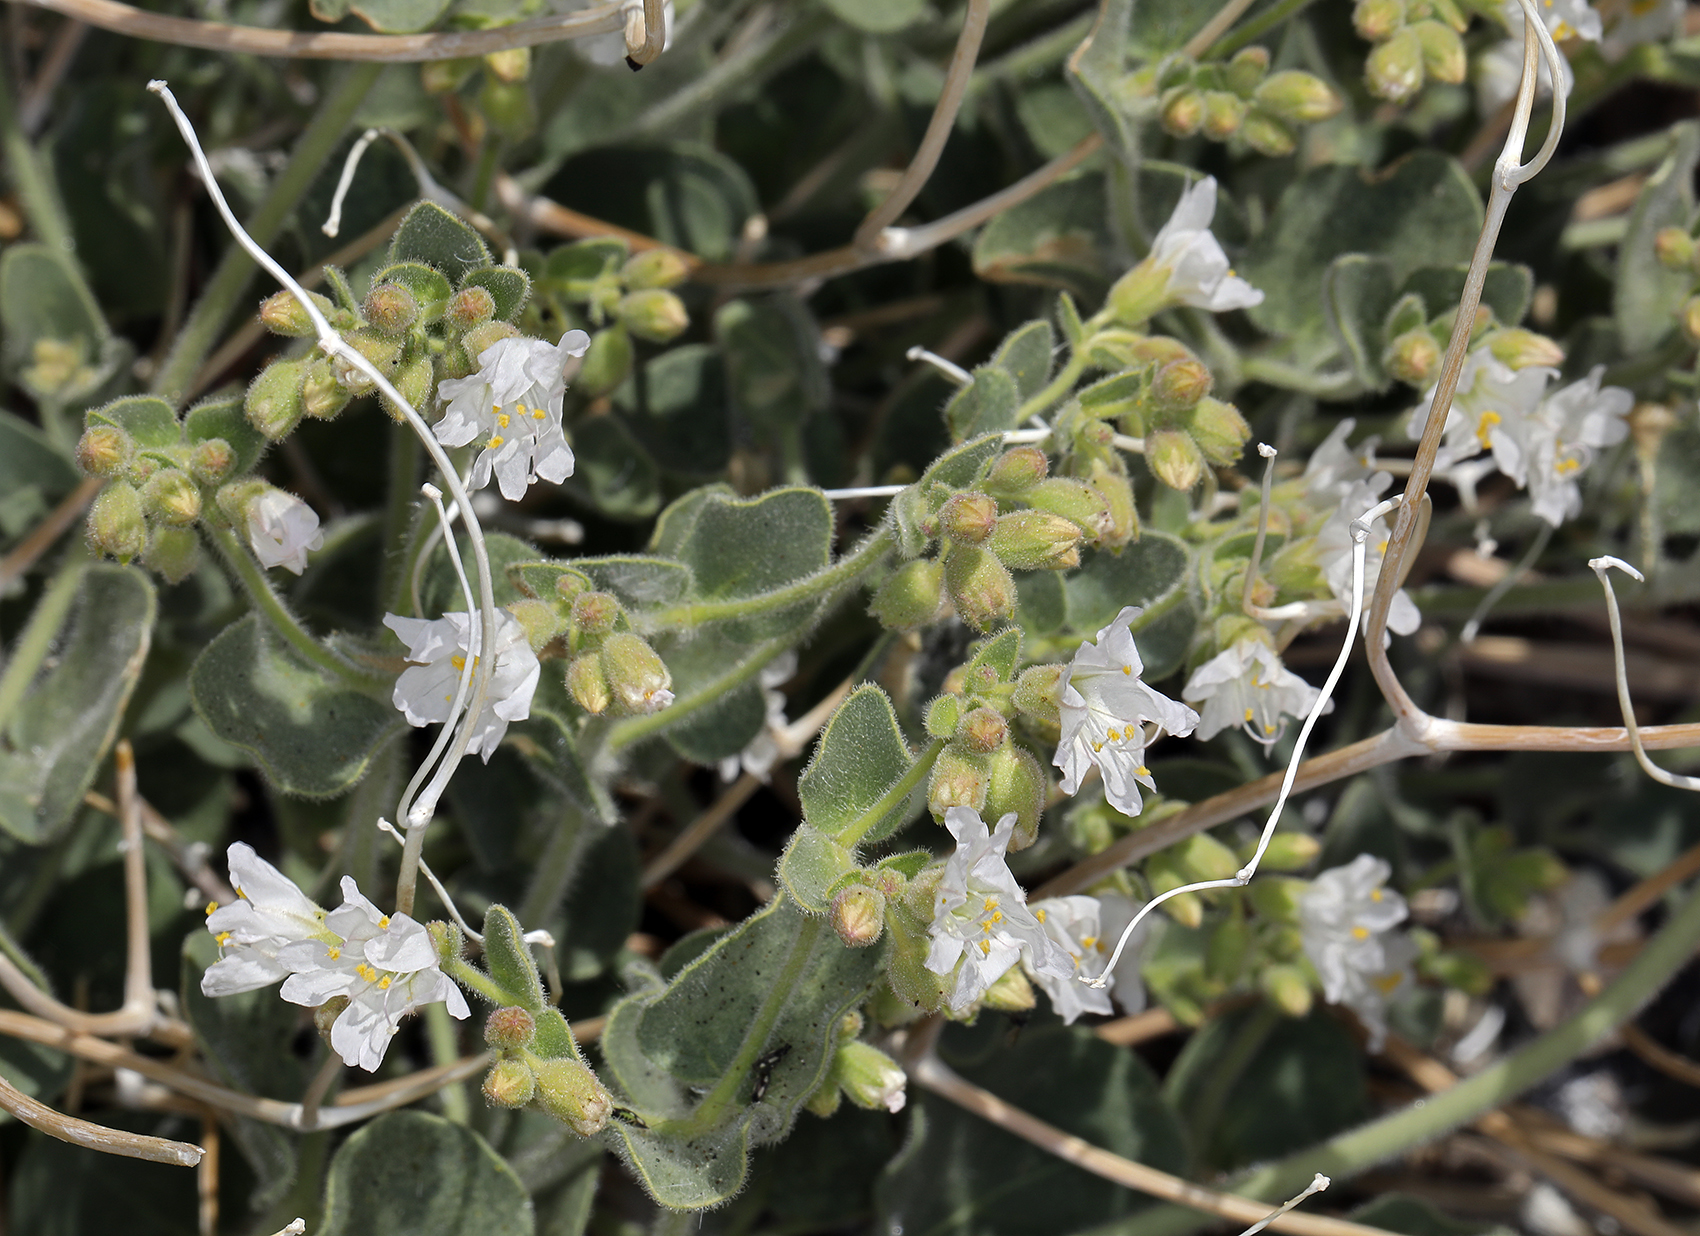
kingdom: Plantae
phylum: Tracheophyta
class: Magnoliopsida
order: Caryophyllales
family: Nyctaginaceae
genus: Mirabilis
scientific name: Mirabilis laevis
